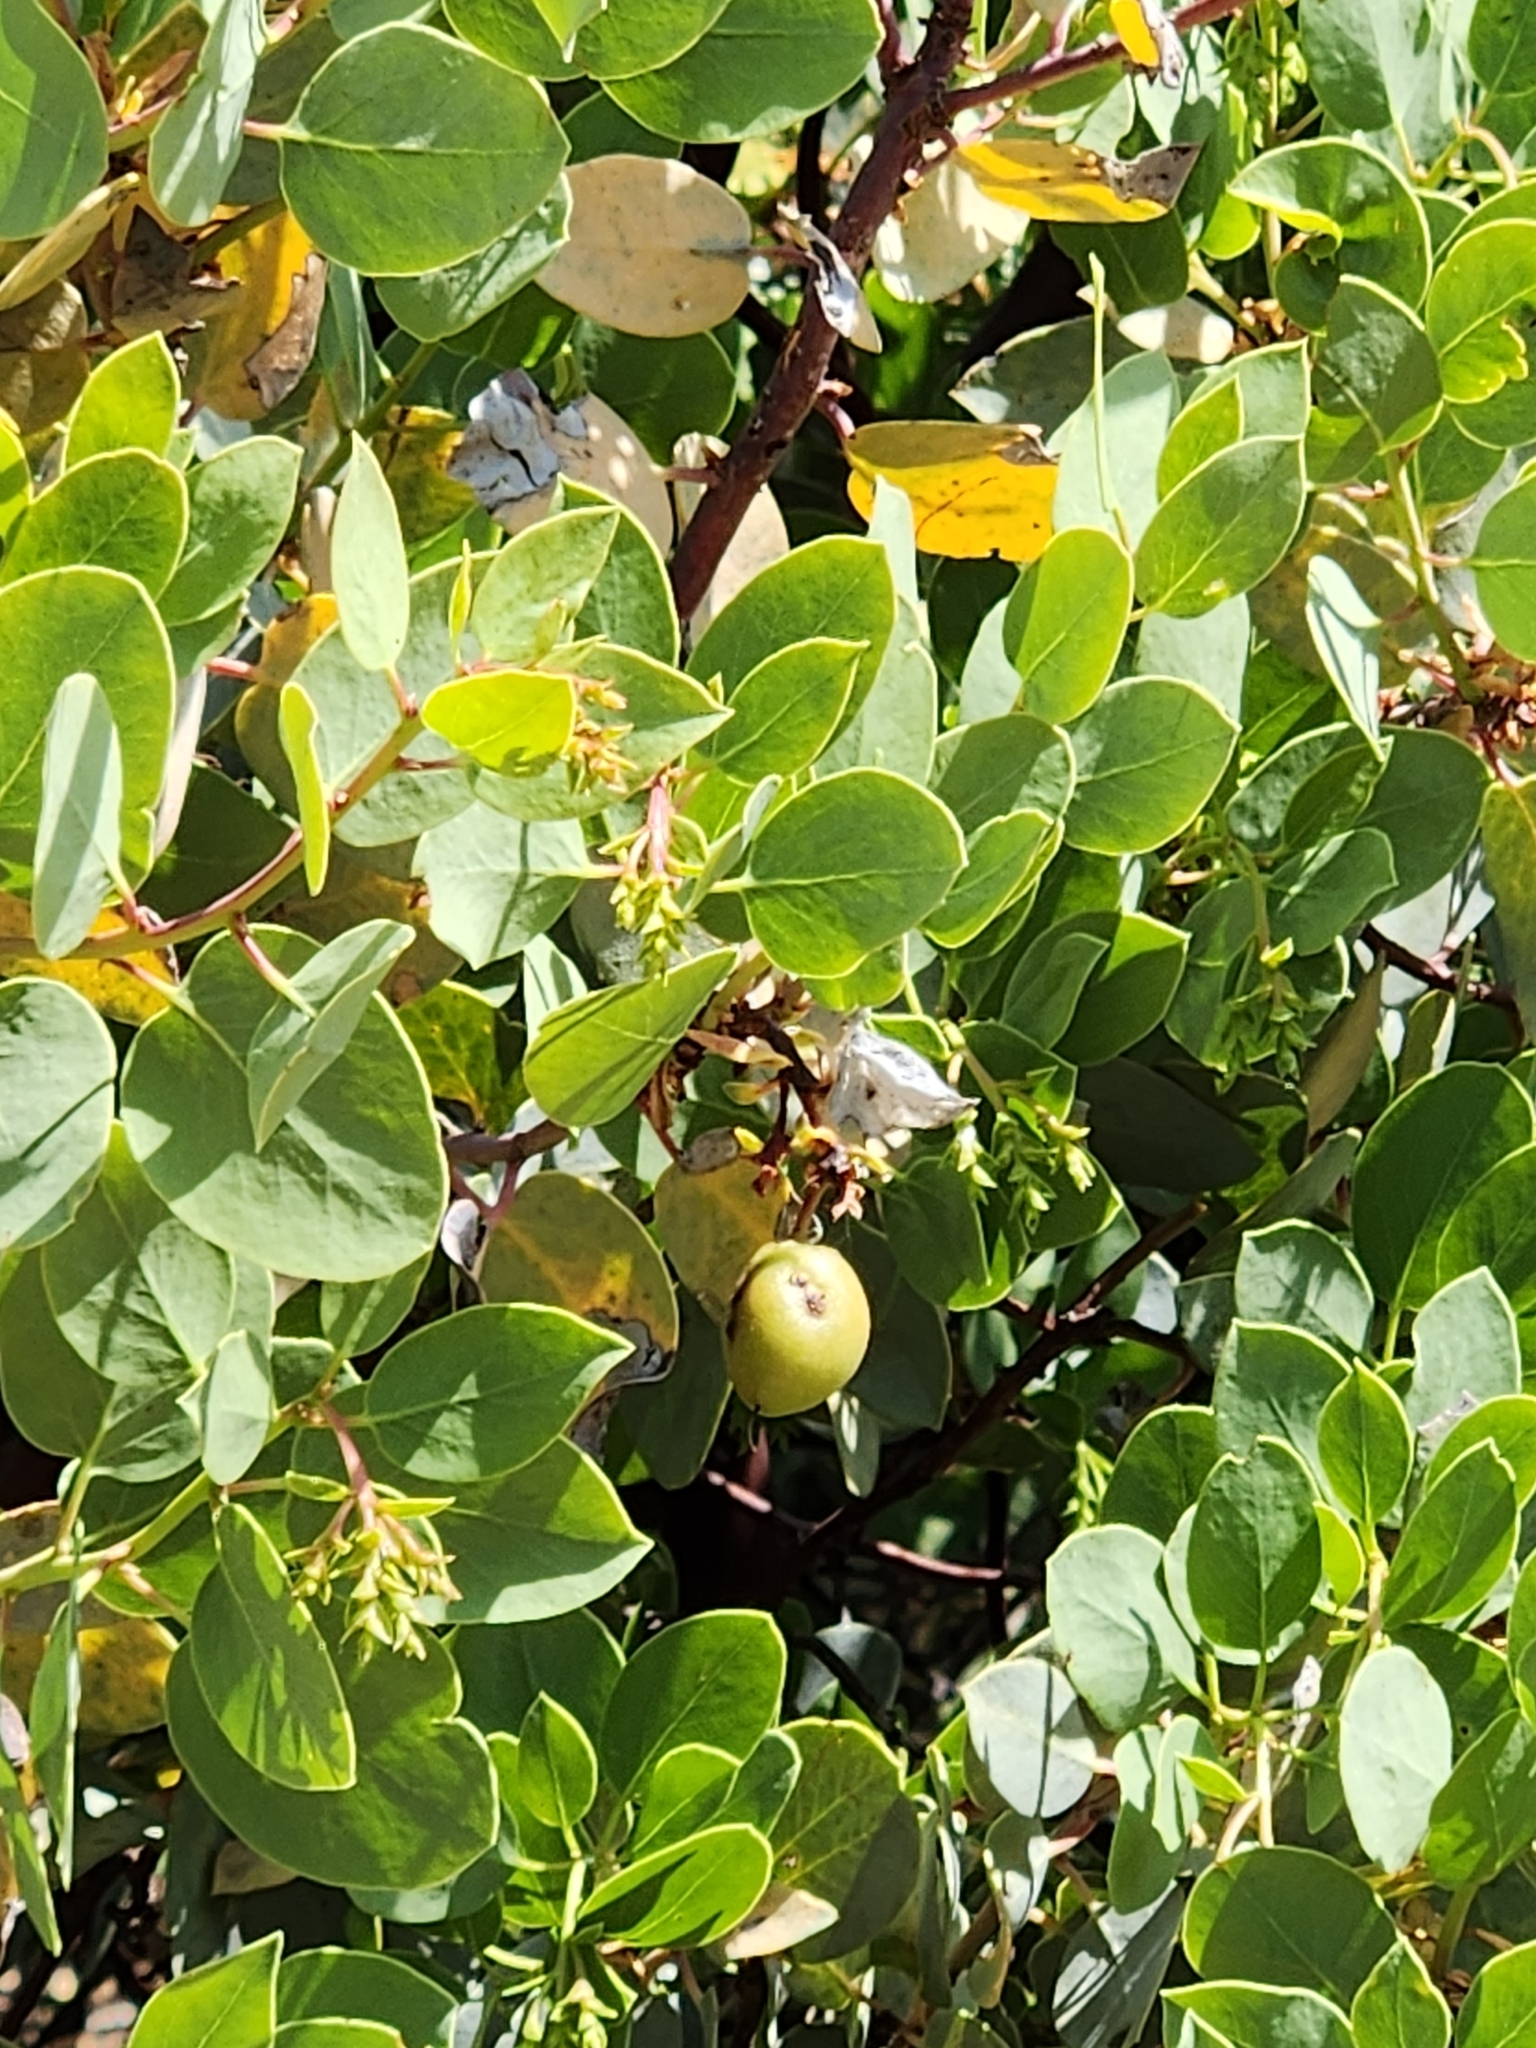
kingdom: Plantae
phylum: Tracheophyta
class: Magnoliopsida
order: Ericales
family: Ericaceae
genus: Arctostaphylos
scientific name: Arctostaphylos glauca
